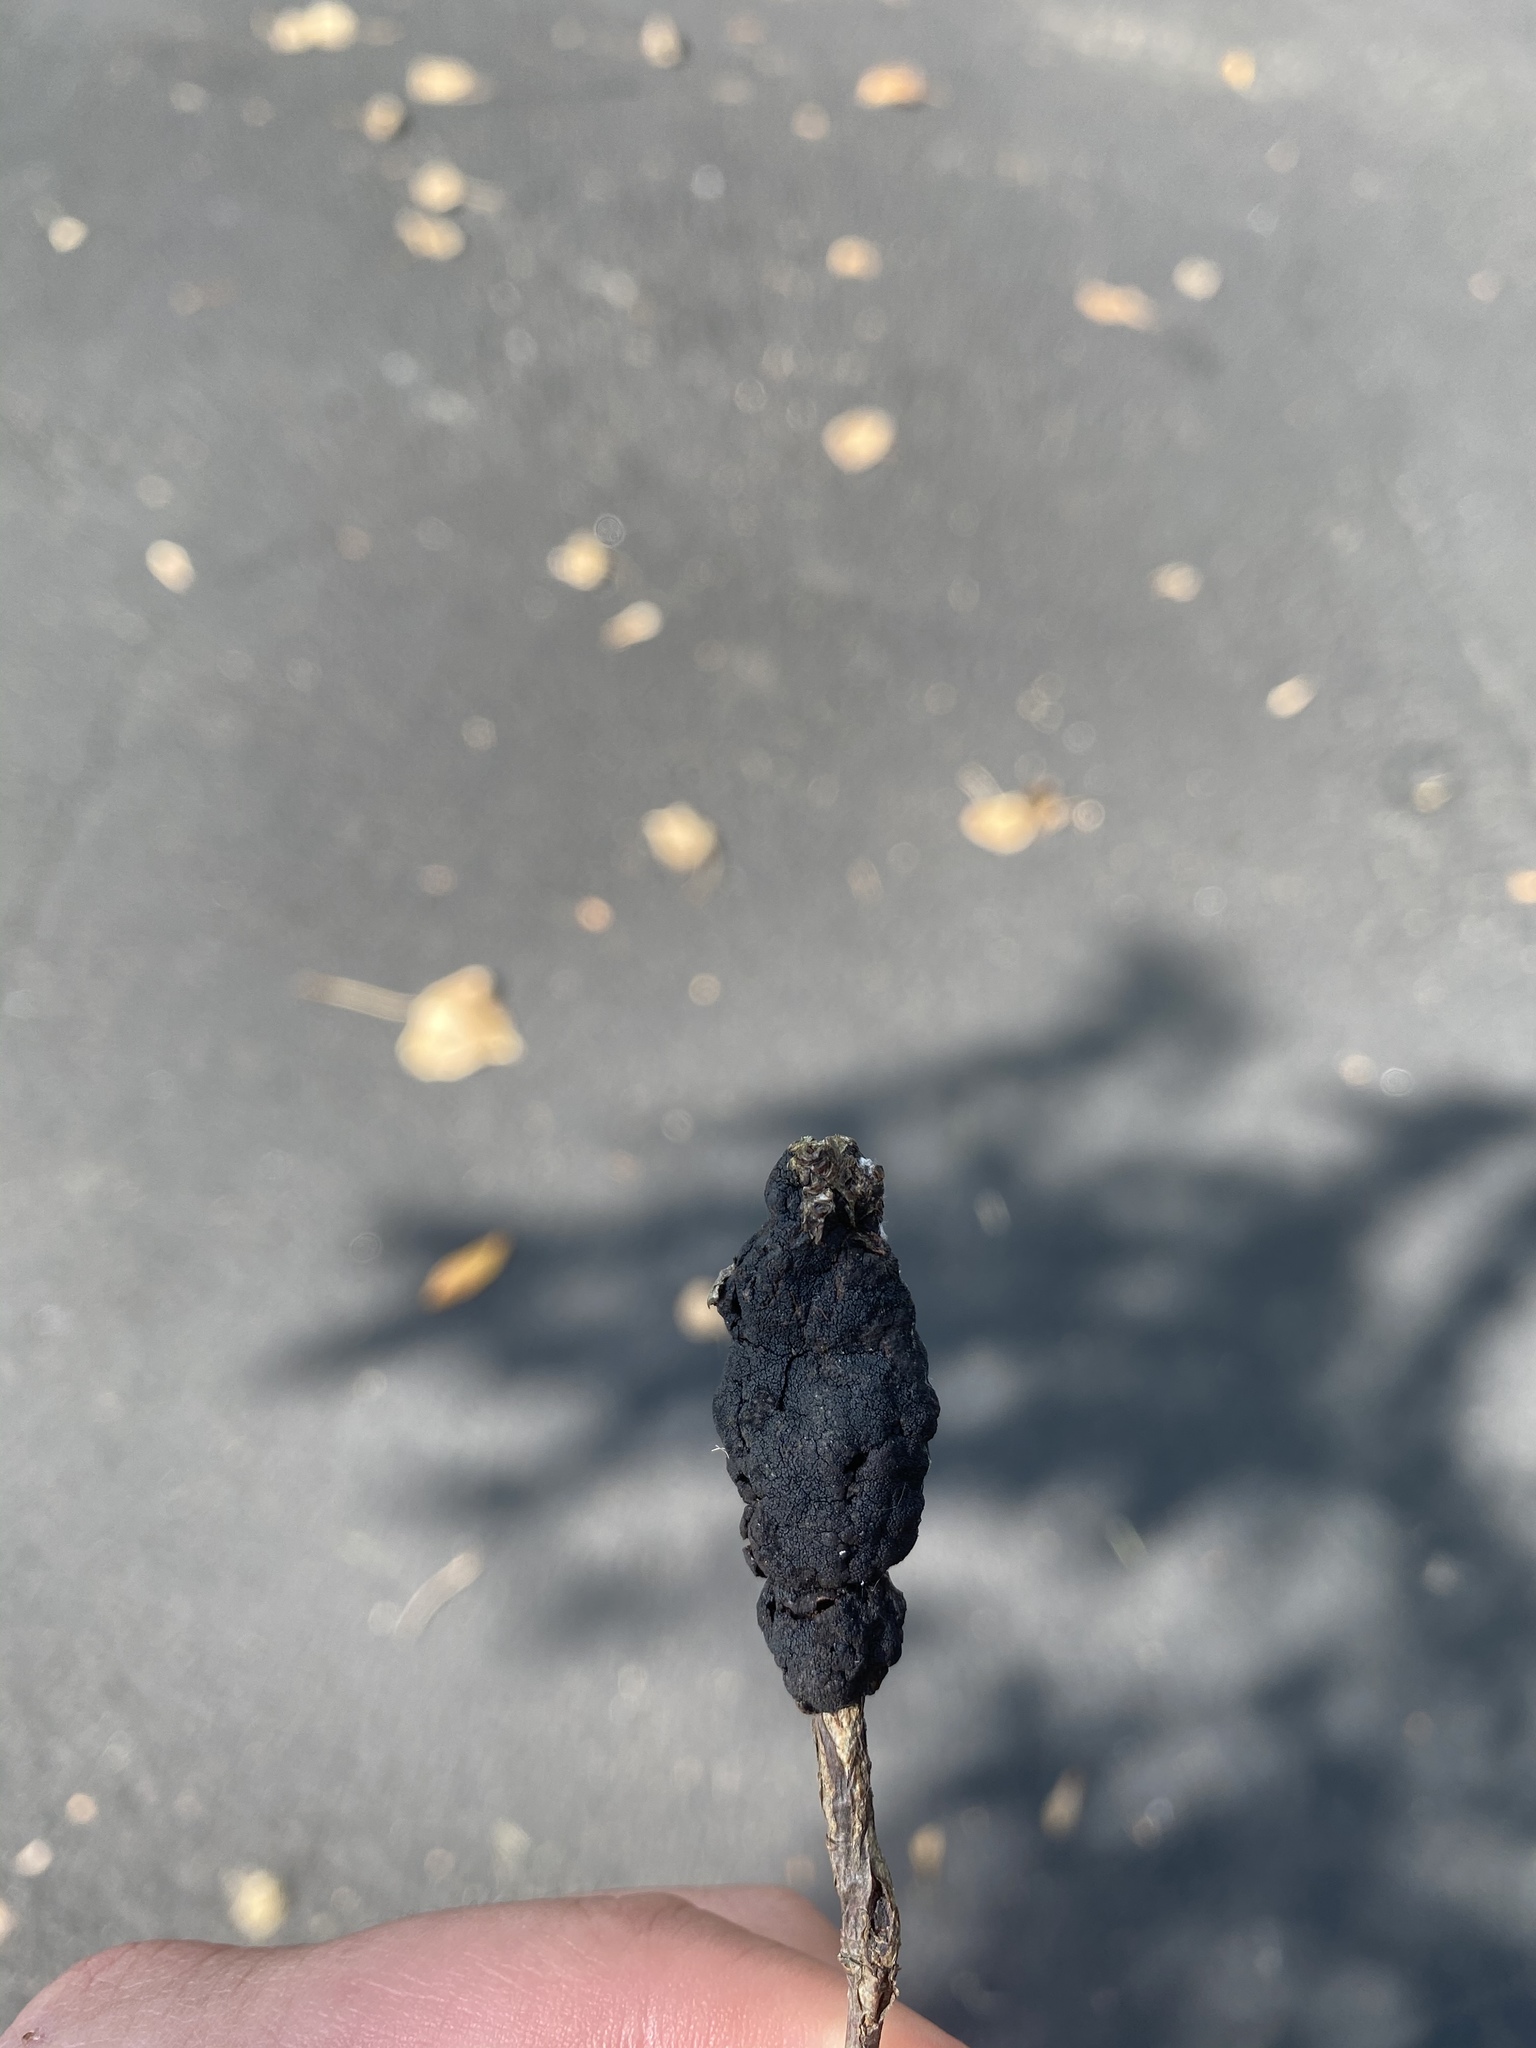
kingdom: Fungi
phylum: Ascomycota
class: Dothideomycetes
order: Venturiales
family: Venturiaceae
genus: Apiosporina
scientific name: Apiosporina morbosa
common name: Black knot
